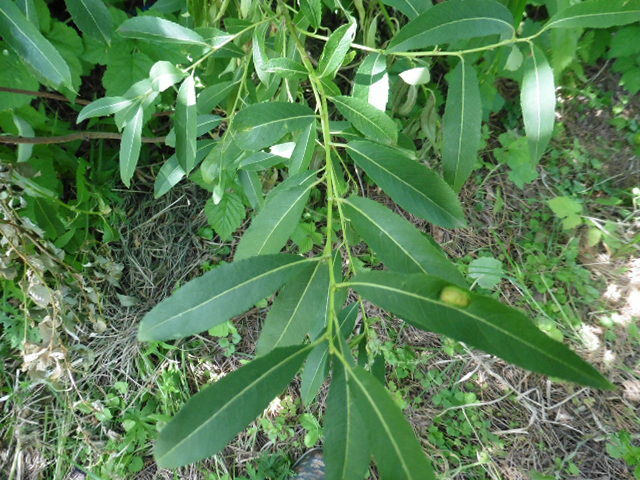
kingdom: Plantae
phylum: Tracheophyta
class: Magnoliopsida
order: Malpighiales
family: Salicaceae
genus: Salix
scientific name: Salix triandra
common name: Almond willow
